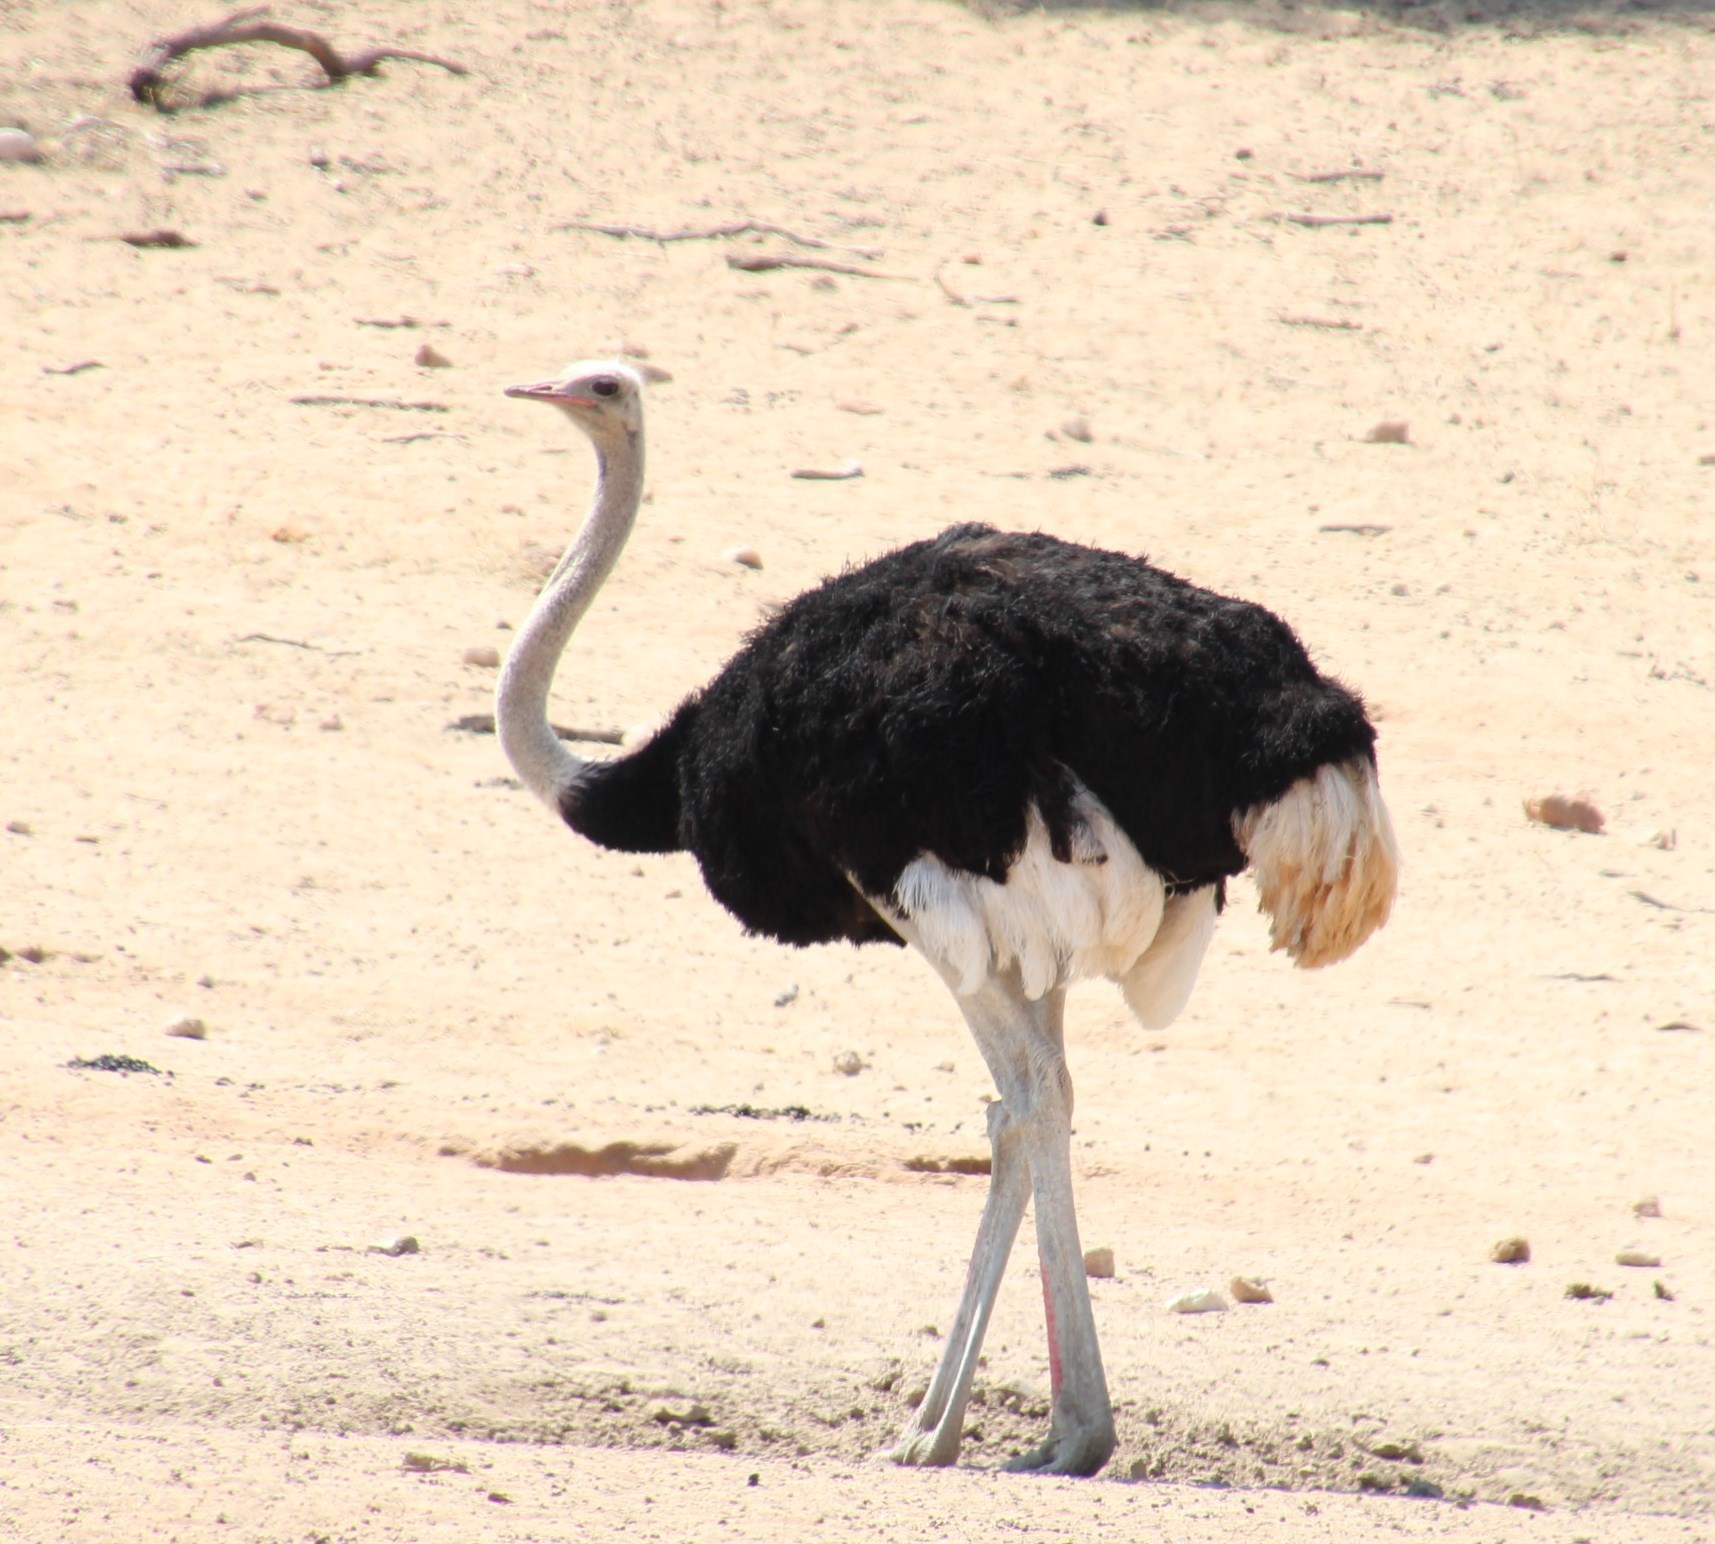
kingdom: Animalia
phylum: Chordata
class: Aves
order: Struthioniformes
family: Struthionidae
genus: Struthio
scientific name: Struthio camelus
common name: Common ostrich
